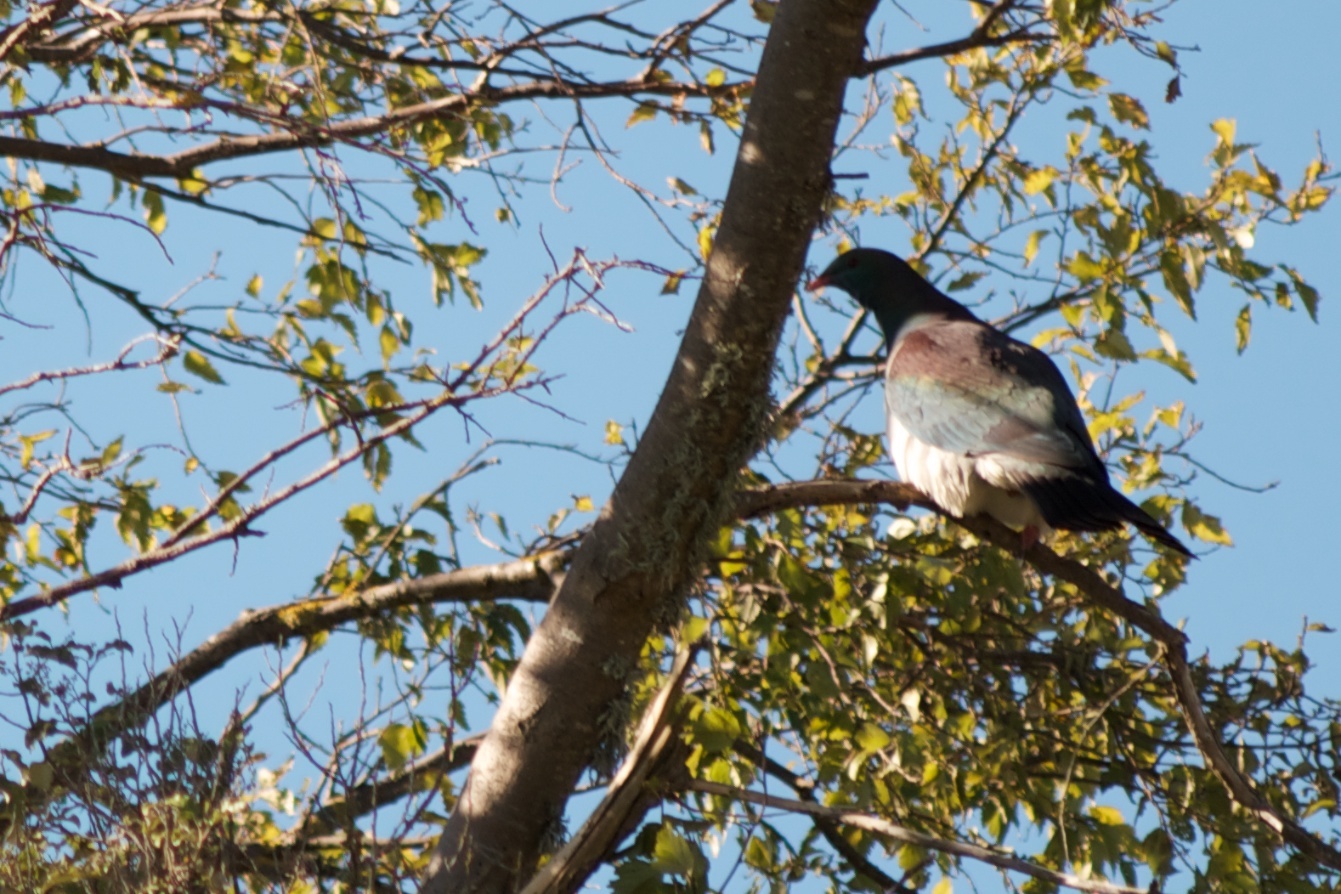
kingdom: Animalia
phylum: Chordata
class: Aves
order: Columbiformes
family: Columbidae
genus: Hemiphaga
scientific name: Hemiphaga novaeseelandiae
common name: New zealand pigeon
